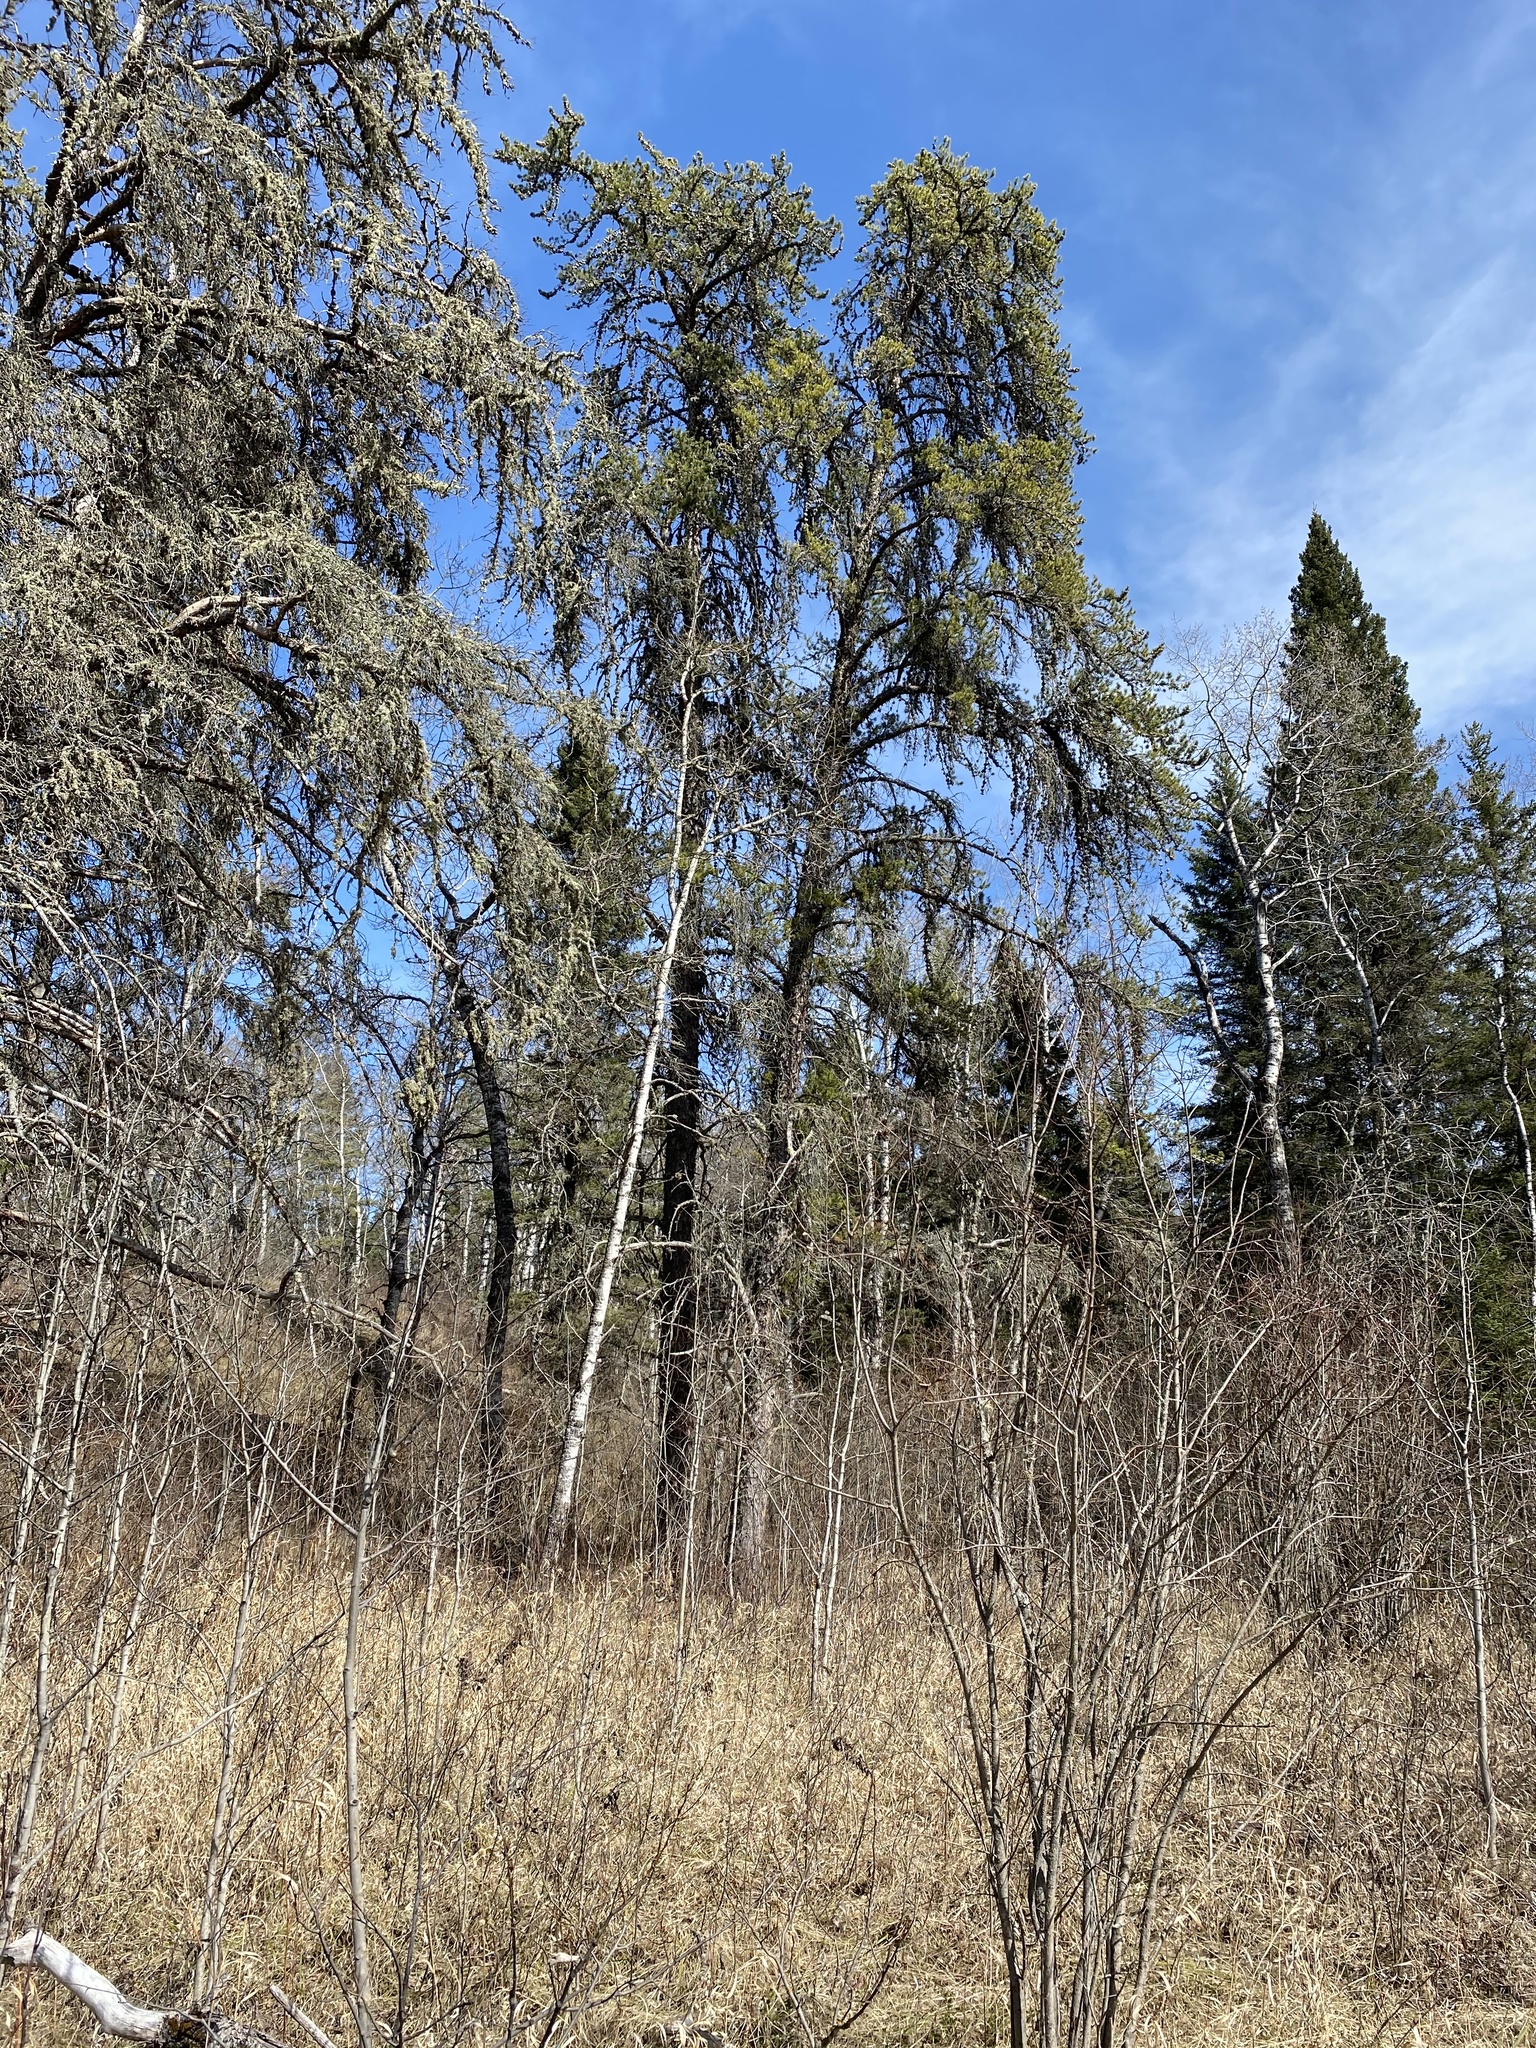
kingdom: Plantae
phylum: Tracheophyta
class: Pinopsida
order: Pinales
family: Pinaceae
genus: Pinus
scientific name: Pinus banksiana
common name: Jack pine
